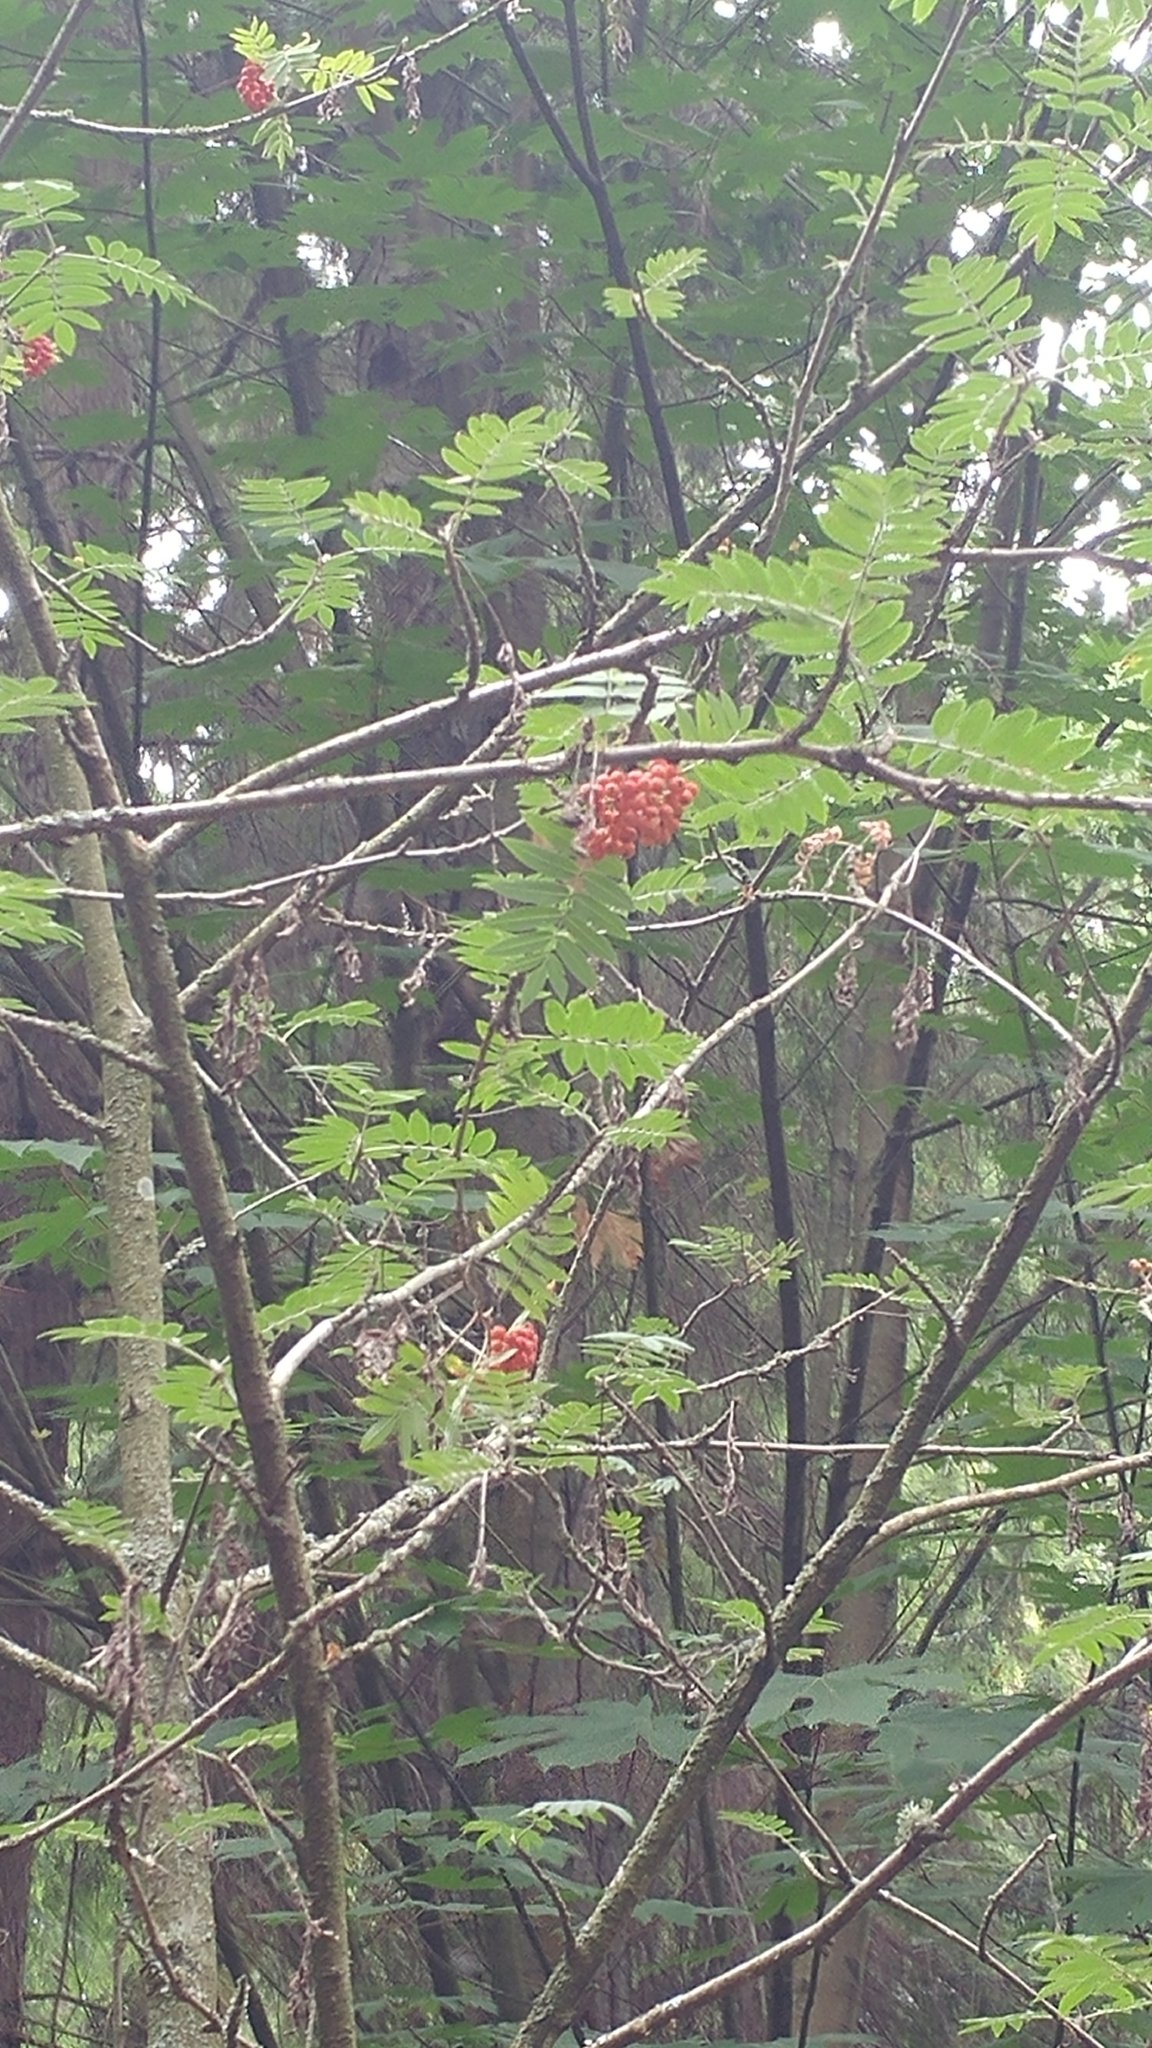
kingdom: Plantae
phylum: Tracheophyta
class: Magnoliopsida
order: Rosales
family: Rosaceae
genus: Sorbus
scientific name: Sorbus aucuparia
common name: Rowan
